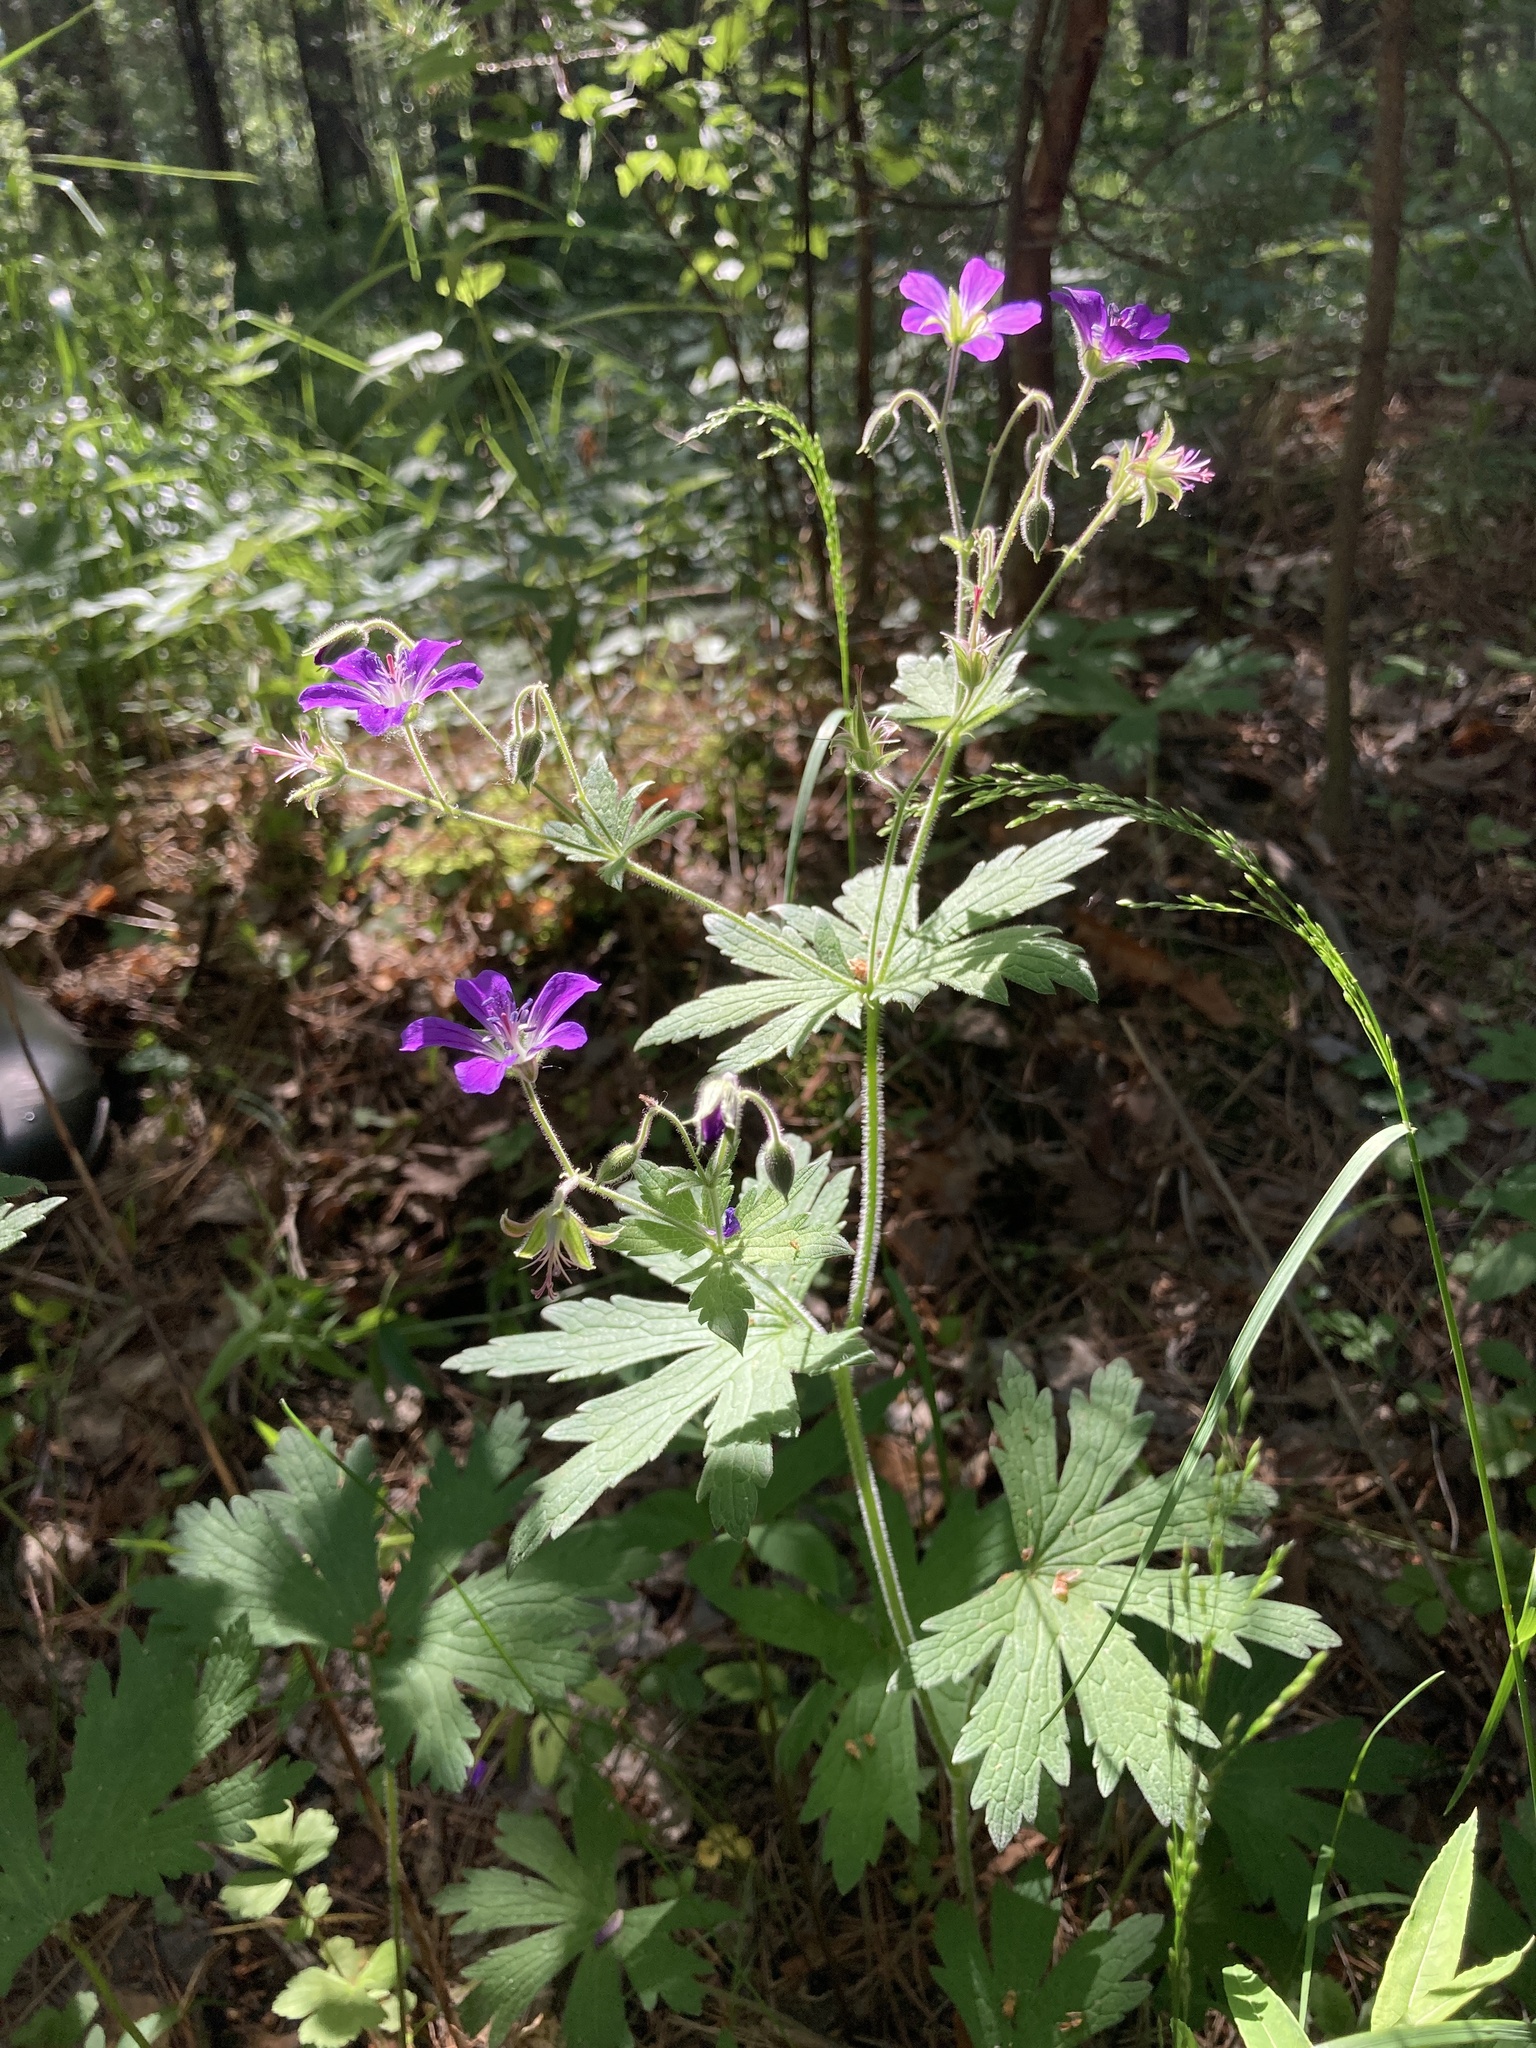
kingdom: Plantae
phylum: Tracheophyta
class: Magnoliopsida
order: Geraniales
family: Geraniaceae
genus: Geranium
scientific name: Geranium sylvaticum
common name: Wood crane's-bill
